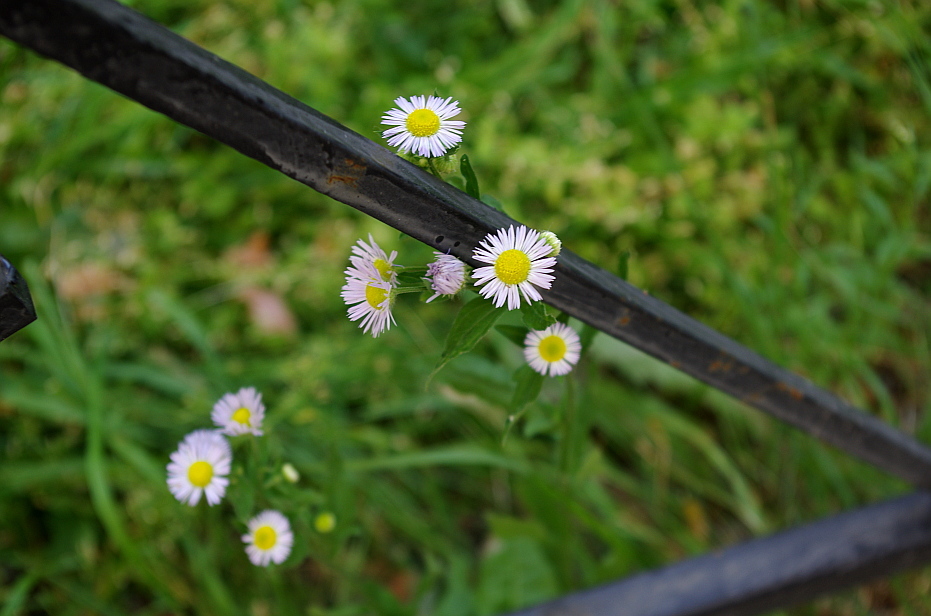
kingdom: Plantae
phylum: Tracheophyta
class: Magnoliopsida
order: Asterales
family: Asteraceae
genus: Erigeron
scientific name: Erigeron annuus
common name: Tall fleabane
